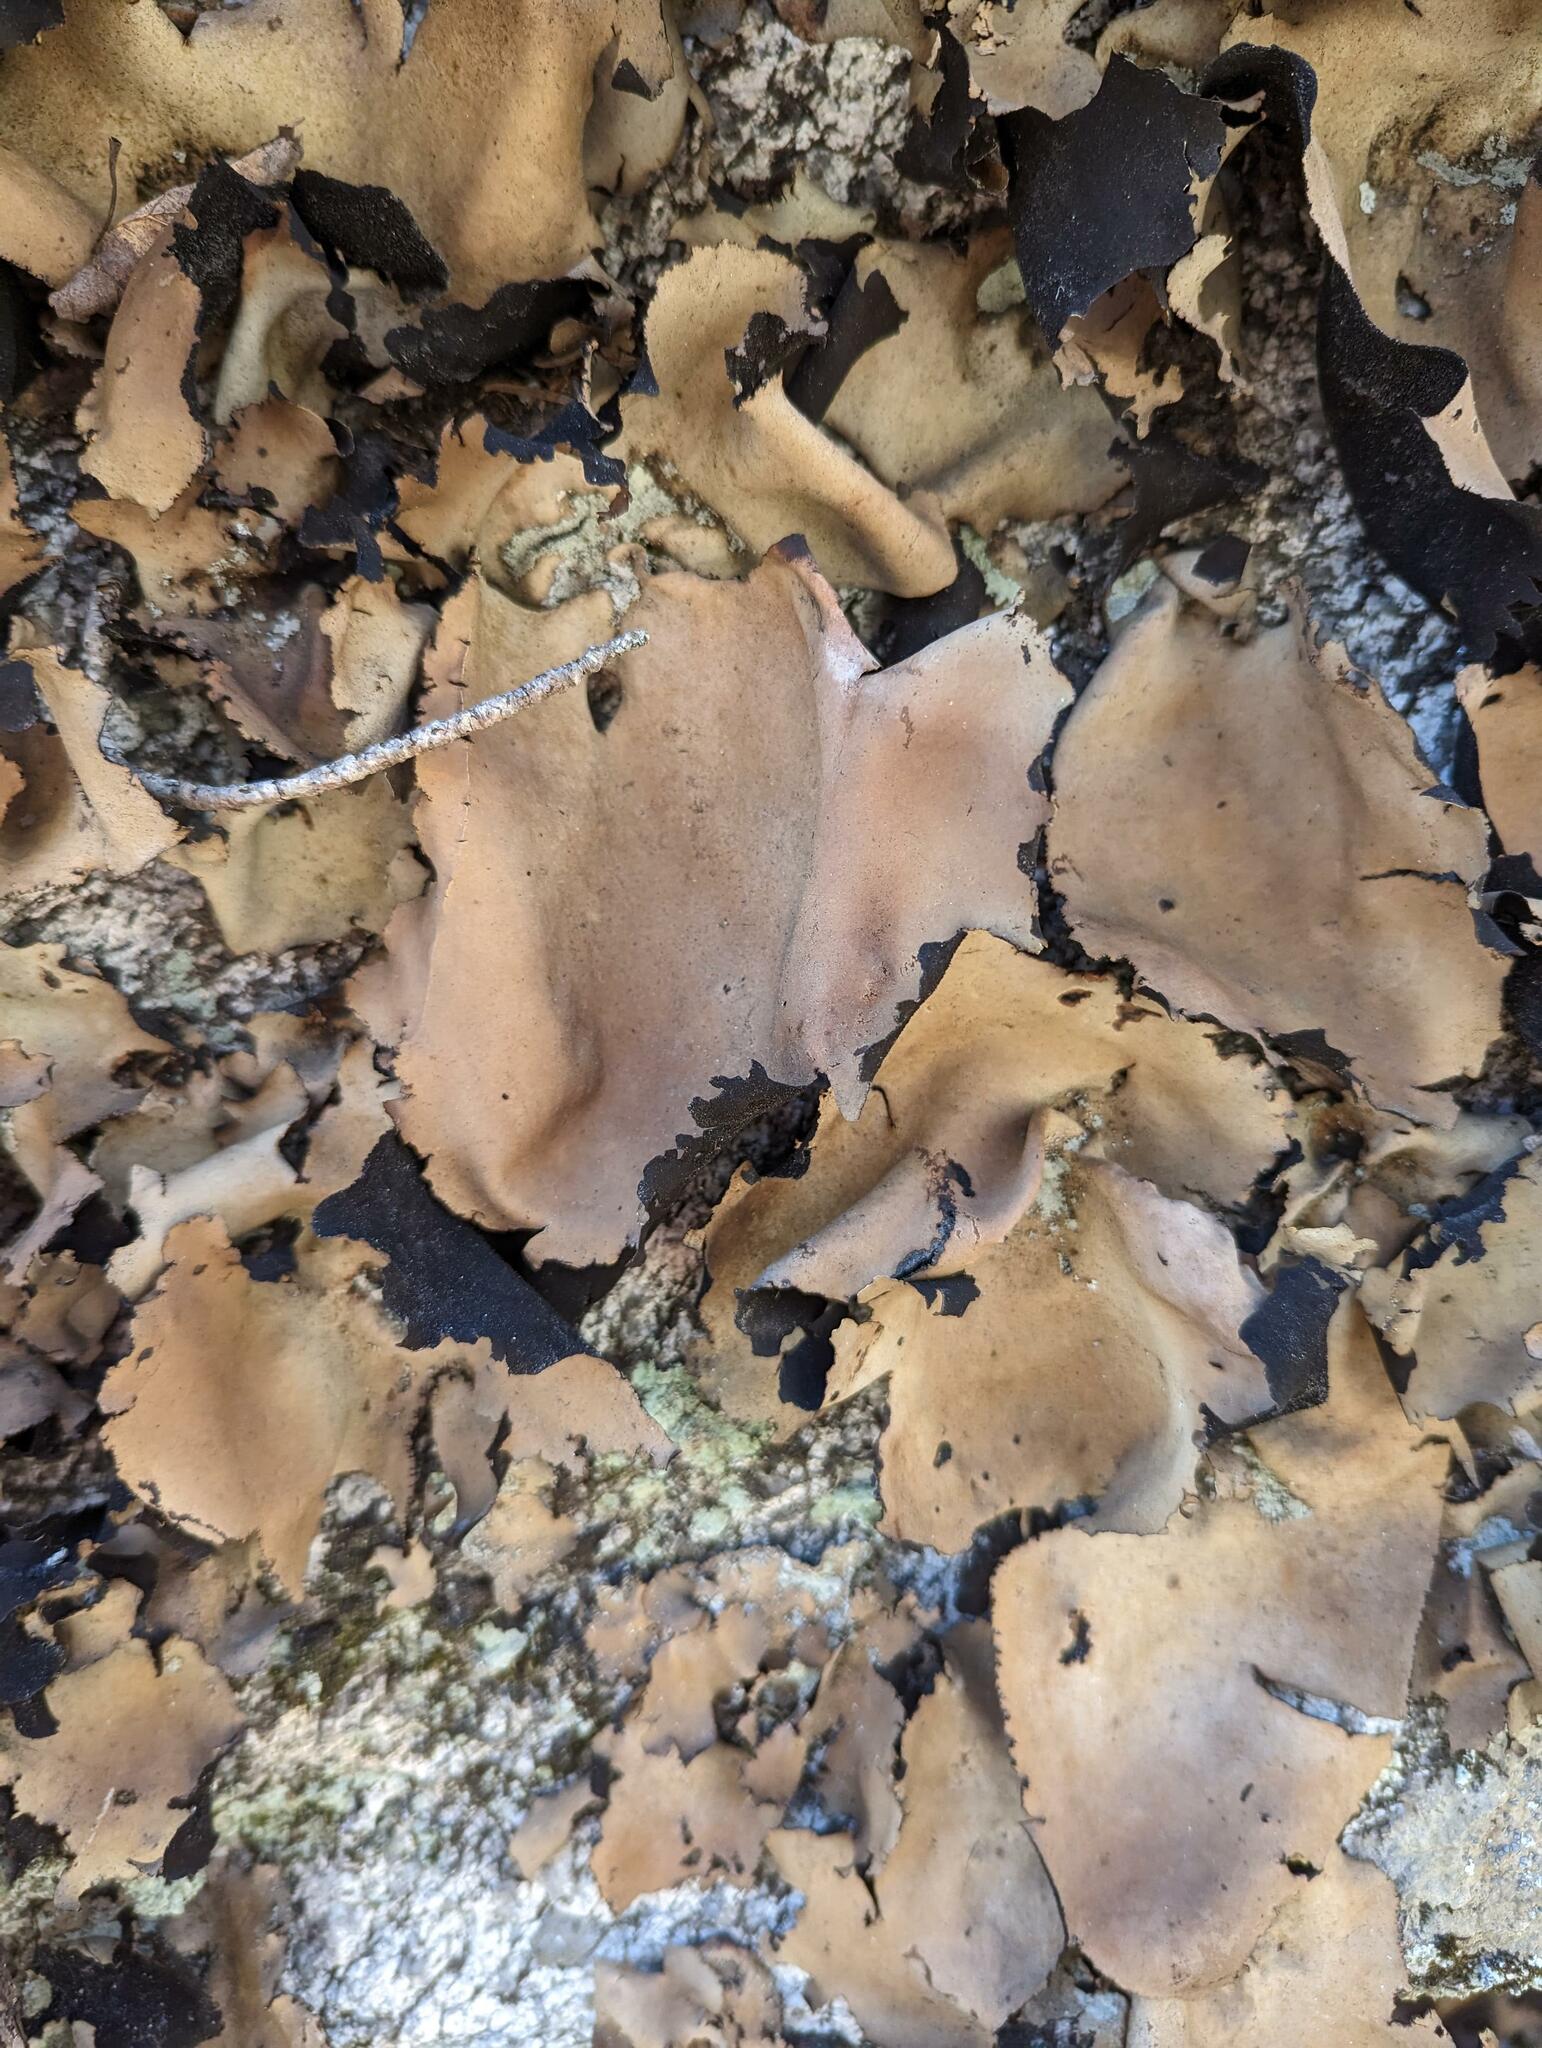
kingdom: Fungi
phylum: Ascomycota
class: Lecanoromycetes
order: Umbilicariales
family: Umbilicariaceae
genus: Umbilicaria
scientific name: Umbilicaria mammulata
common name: Smooth rock tripe
